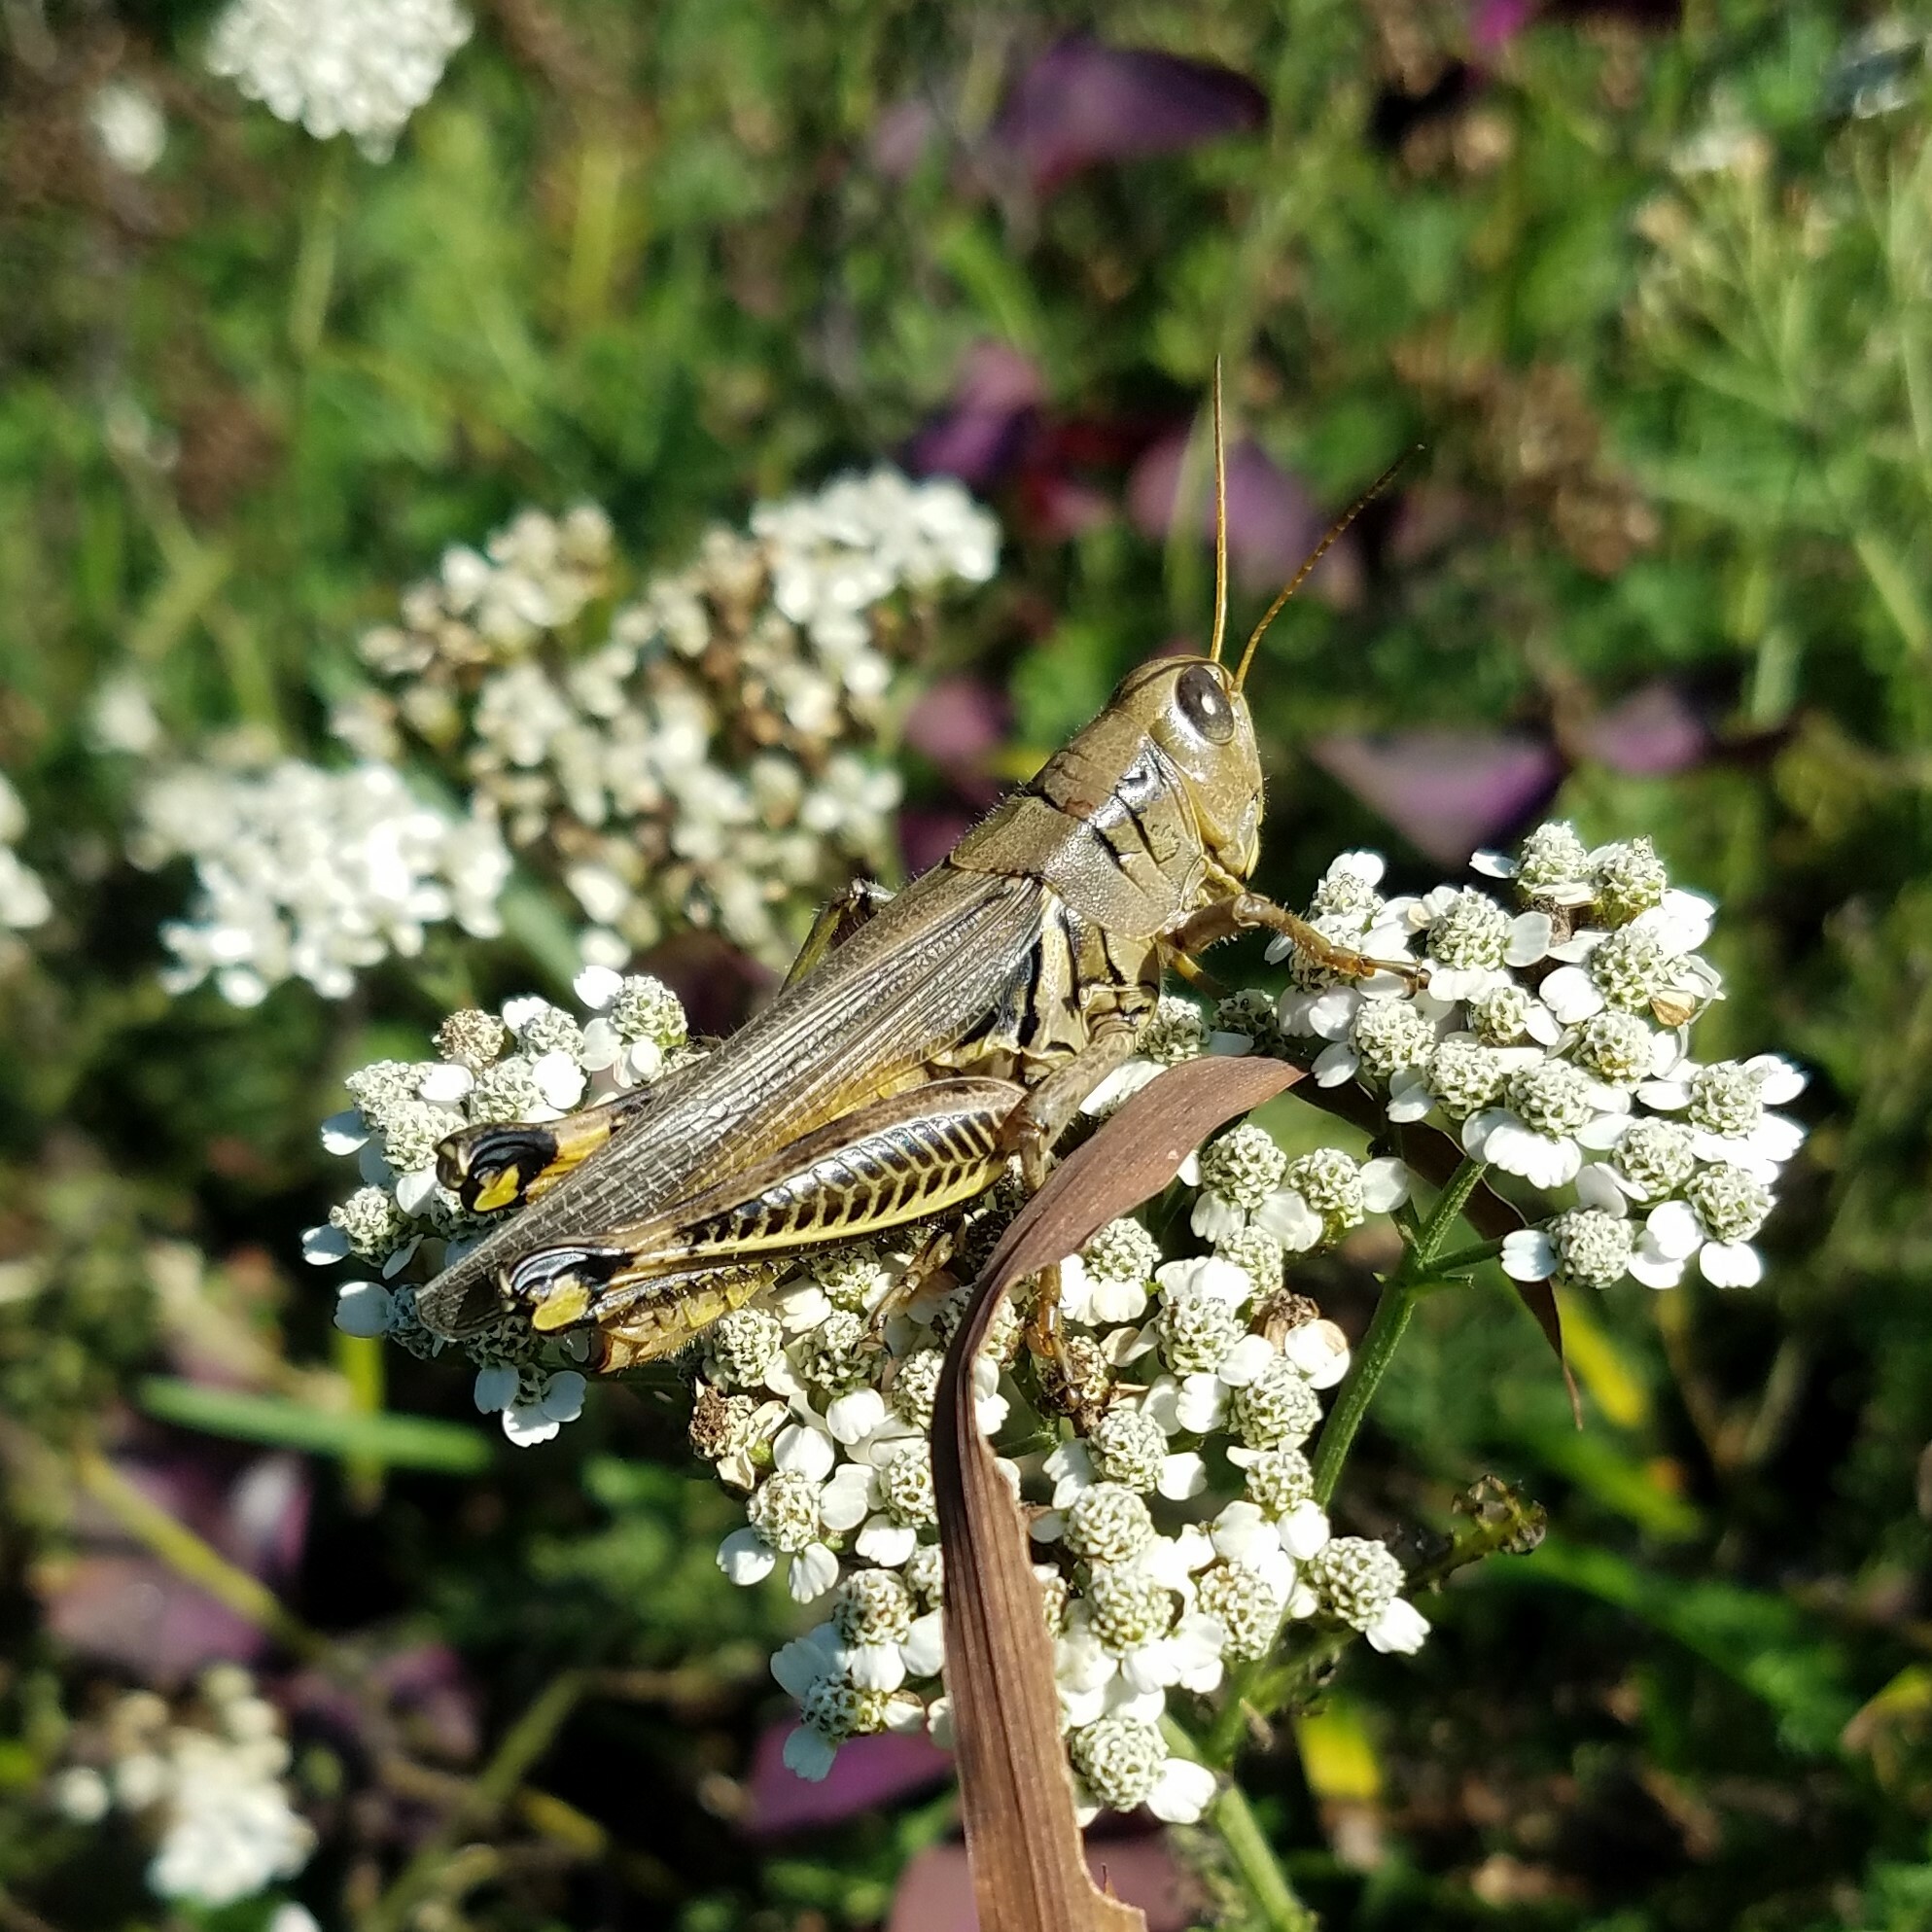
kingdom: Animalia
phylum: Arthropoda
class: Insecta
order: Orthoptera
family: Acrididae
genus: Melanoplus
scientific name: Melanoplus differentialis
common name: Differential grasshopper
